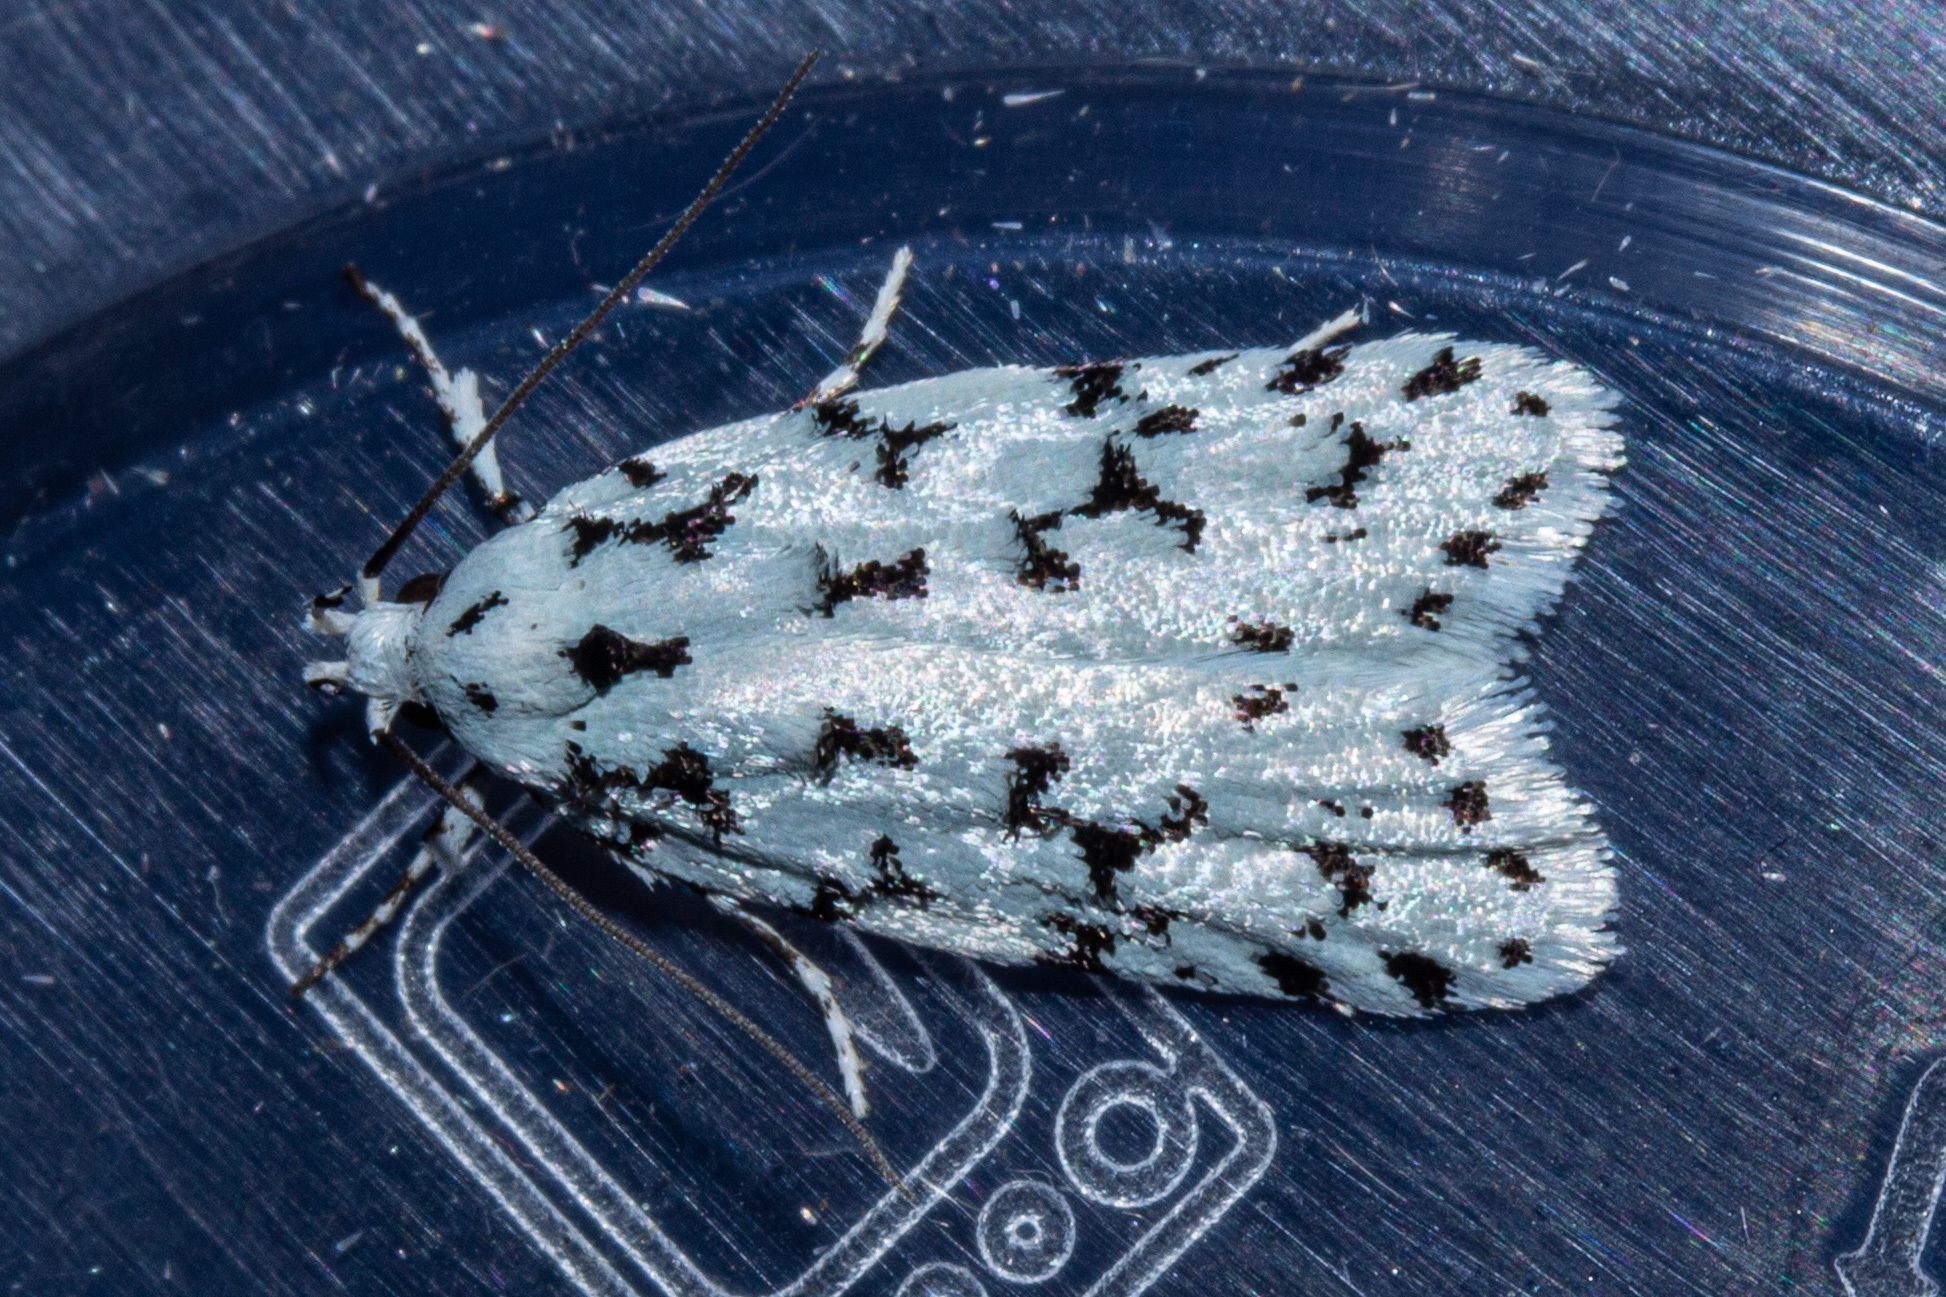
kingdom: Animalia
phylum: Arthropoda
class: Insecta
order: Lepidoptera
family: Oecophoridae
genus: Izatha
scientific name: Izatha huttoni
